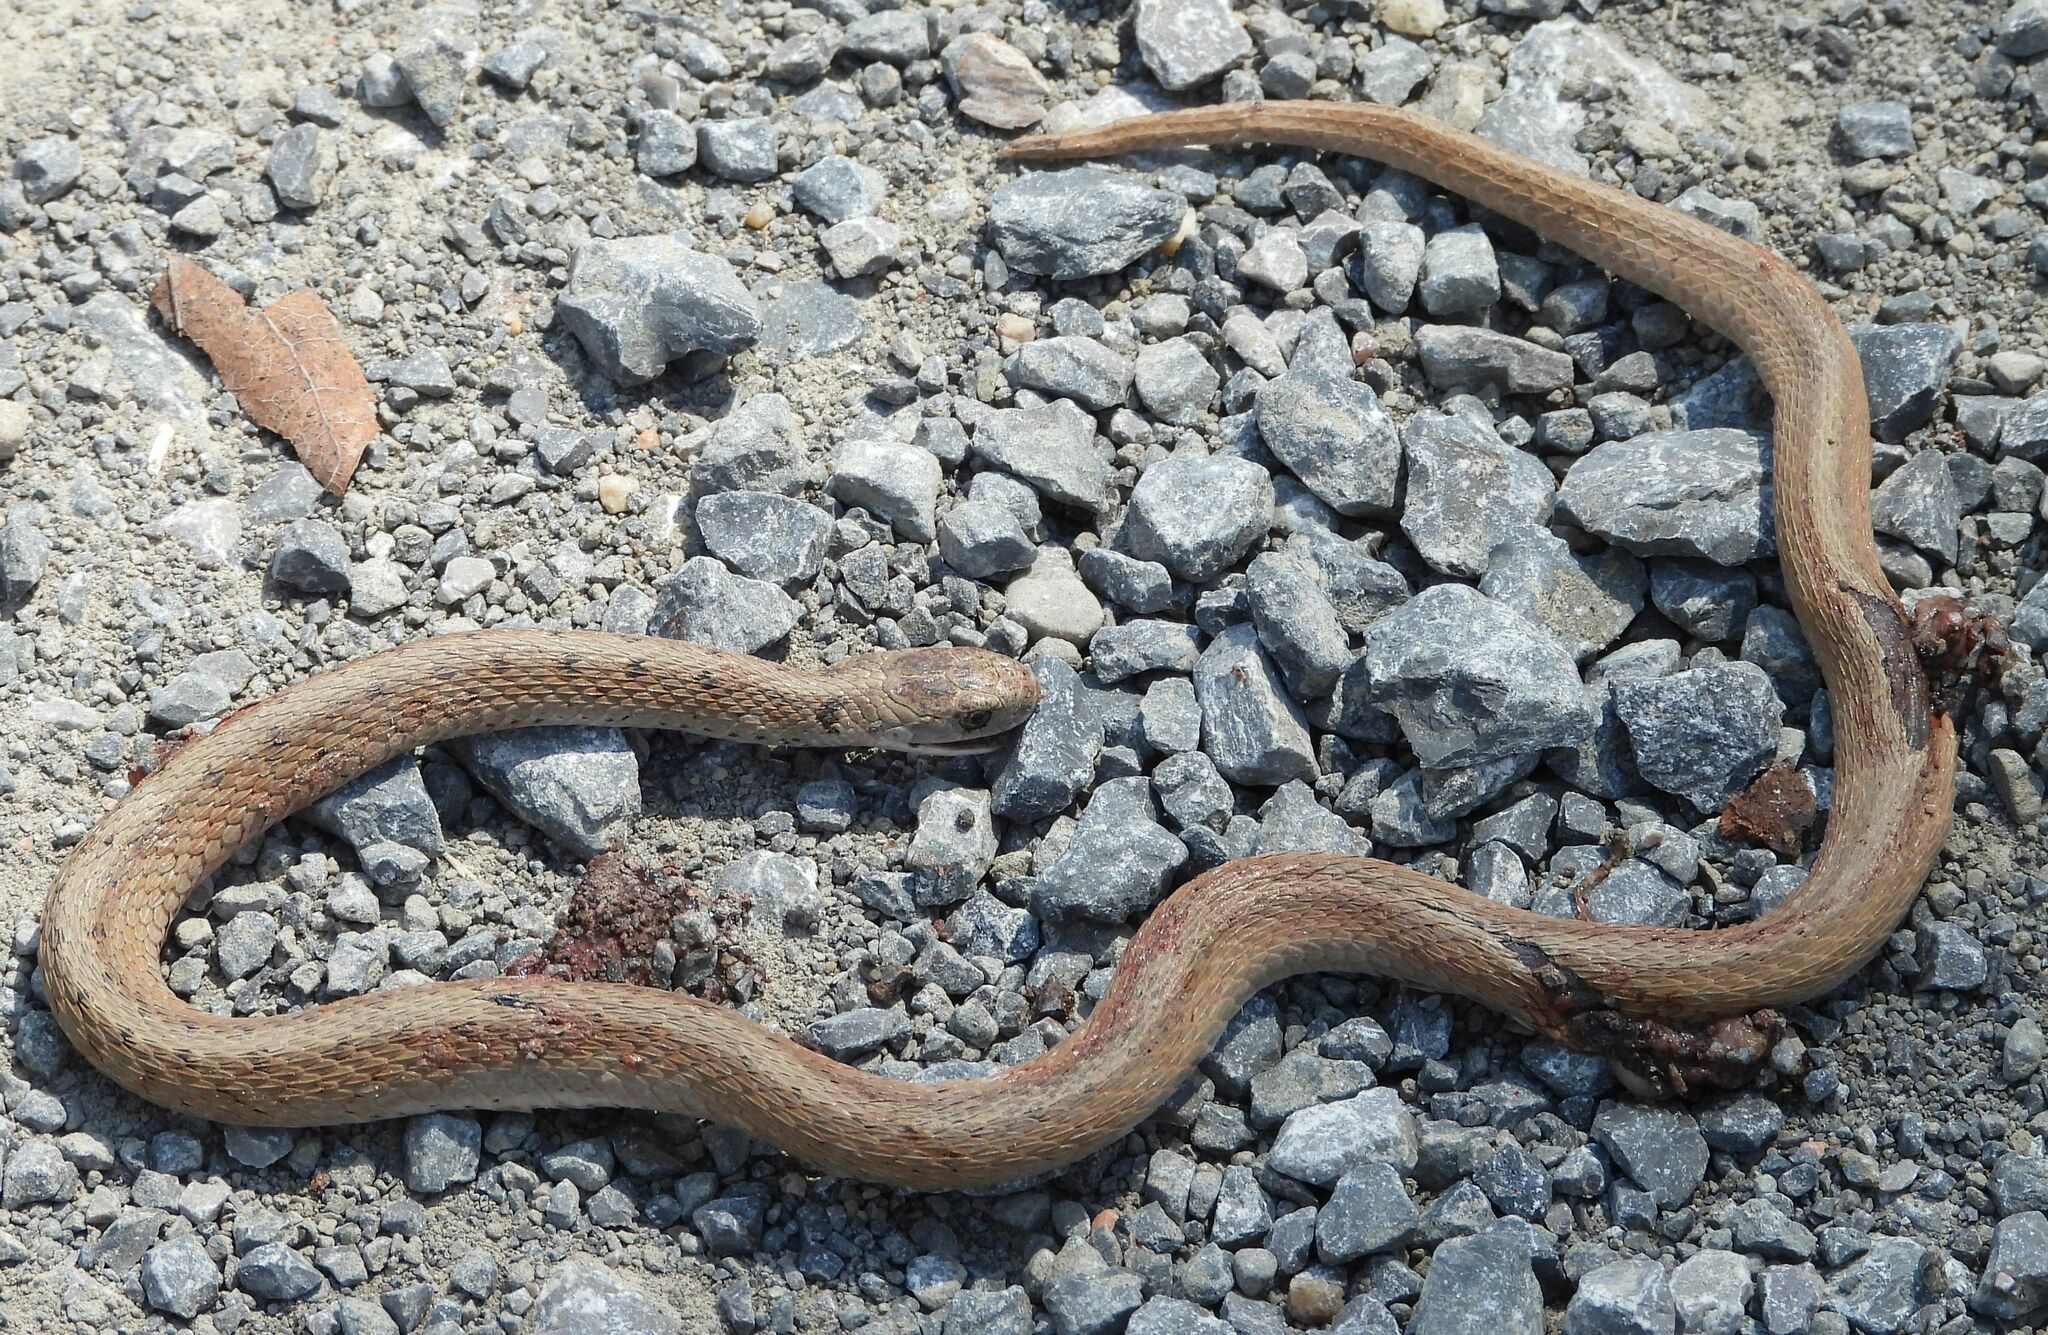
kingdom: Animalia
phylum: Chordata
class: Squamata
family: Colubridae
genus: Storeria
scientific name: Storeria dekayi
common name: (dekay’s) brown snake
